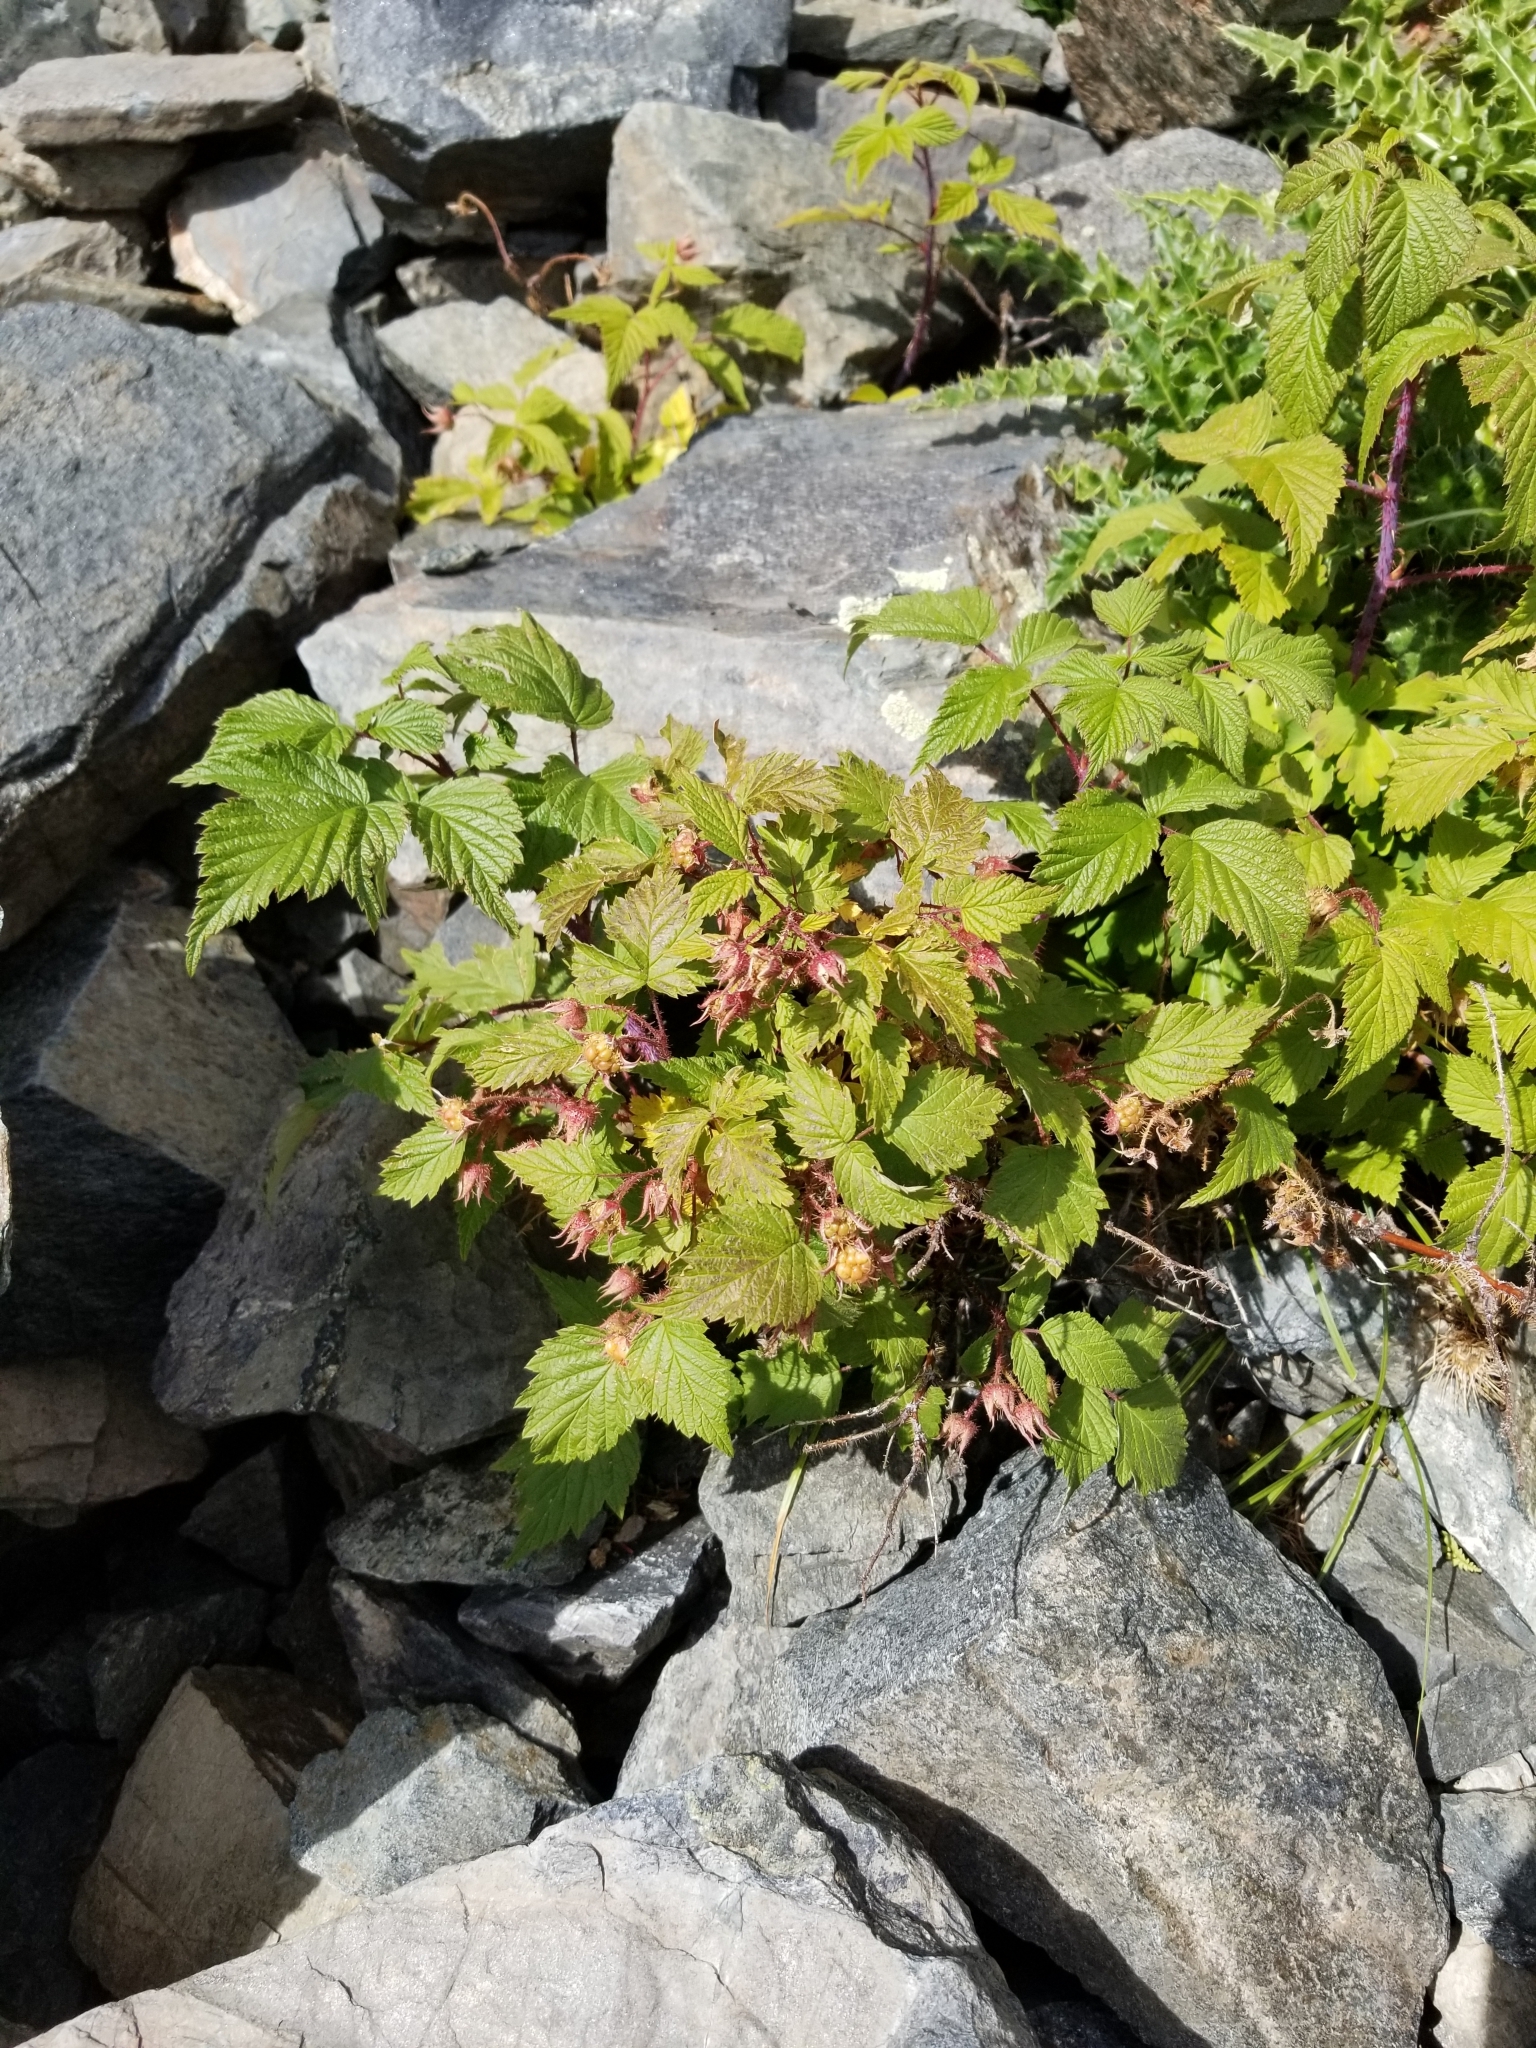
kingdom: Plantae
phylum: Tracheophyta
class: Magnoliopsida
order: Rosales
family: Rosaceae
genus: Rubus
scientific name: Rubus idaeus
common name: Raspberry
